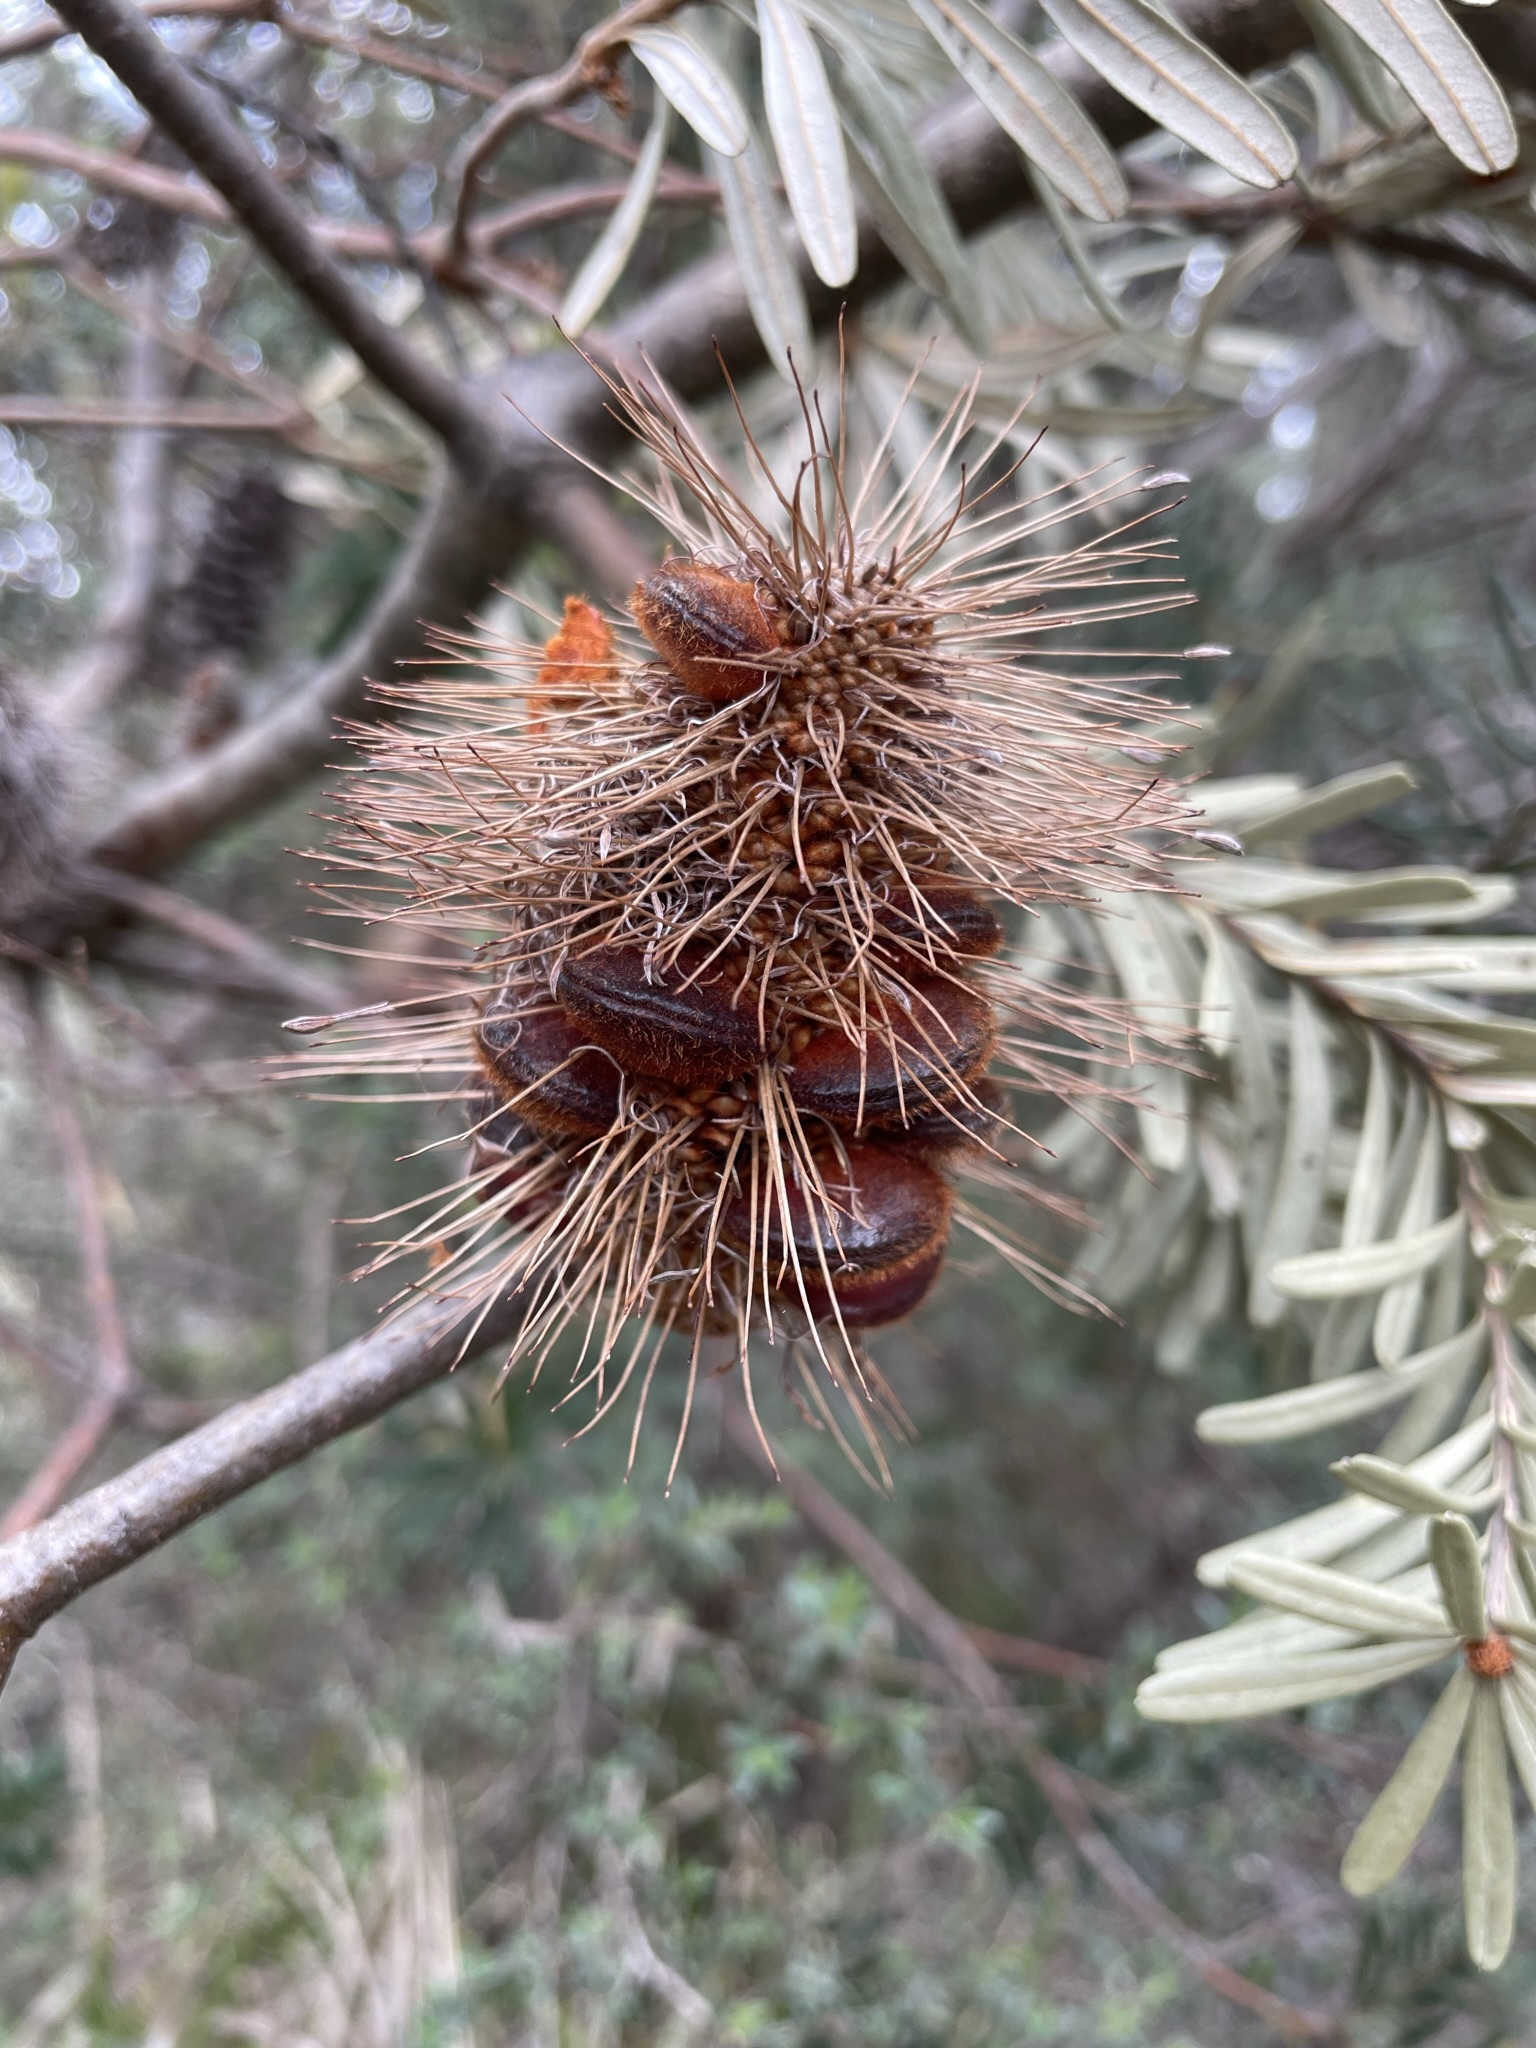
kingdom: Plantae
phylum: Tracheophyta
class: Magnoliopsida
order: Proteales
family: Proteaceae
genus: Banksia
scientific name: Banksia marginata
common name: Silver banksia
